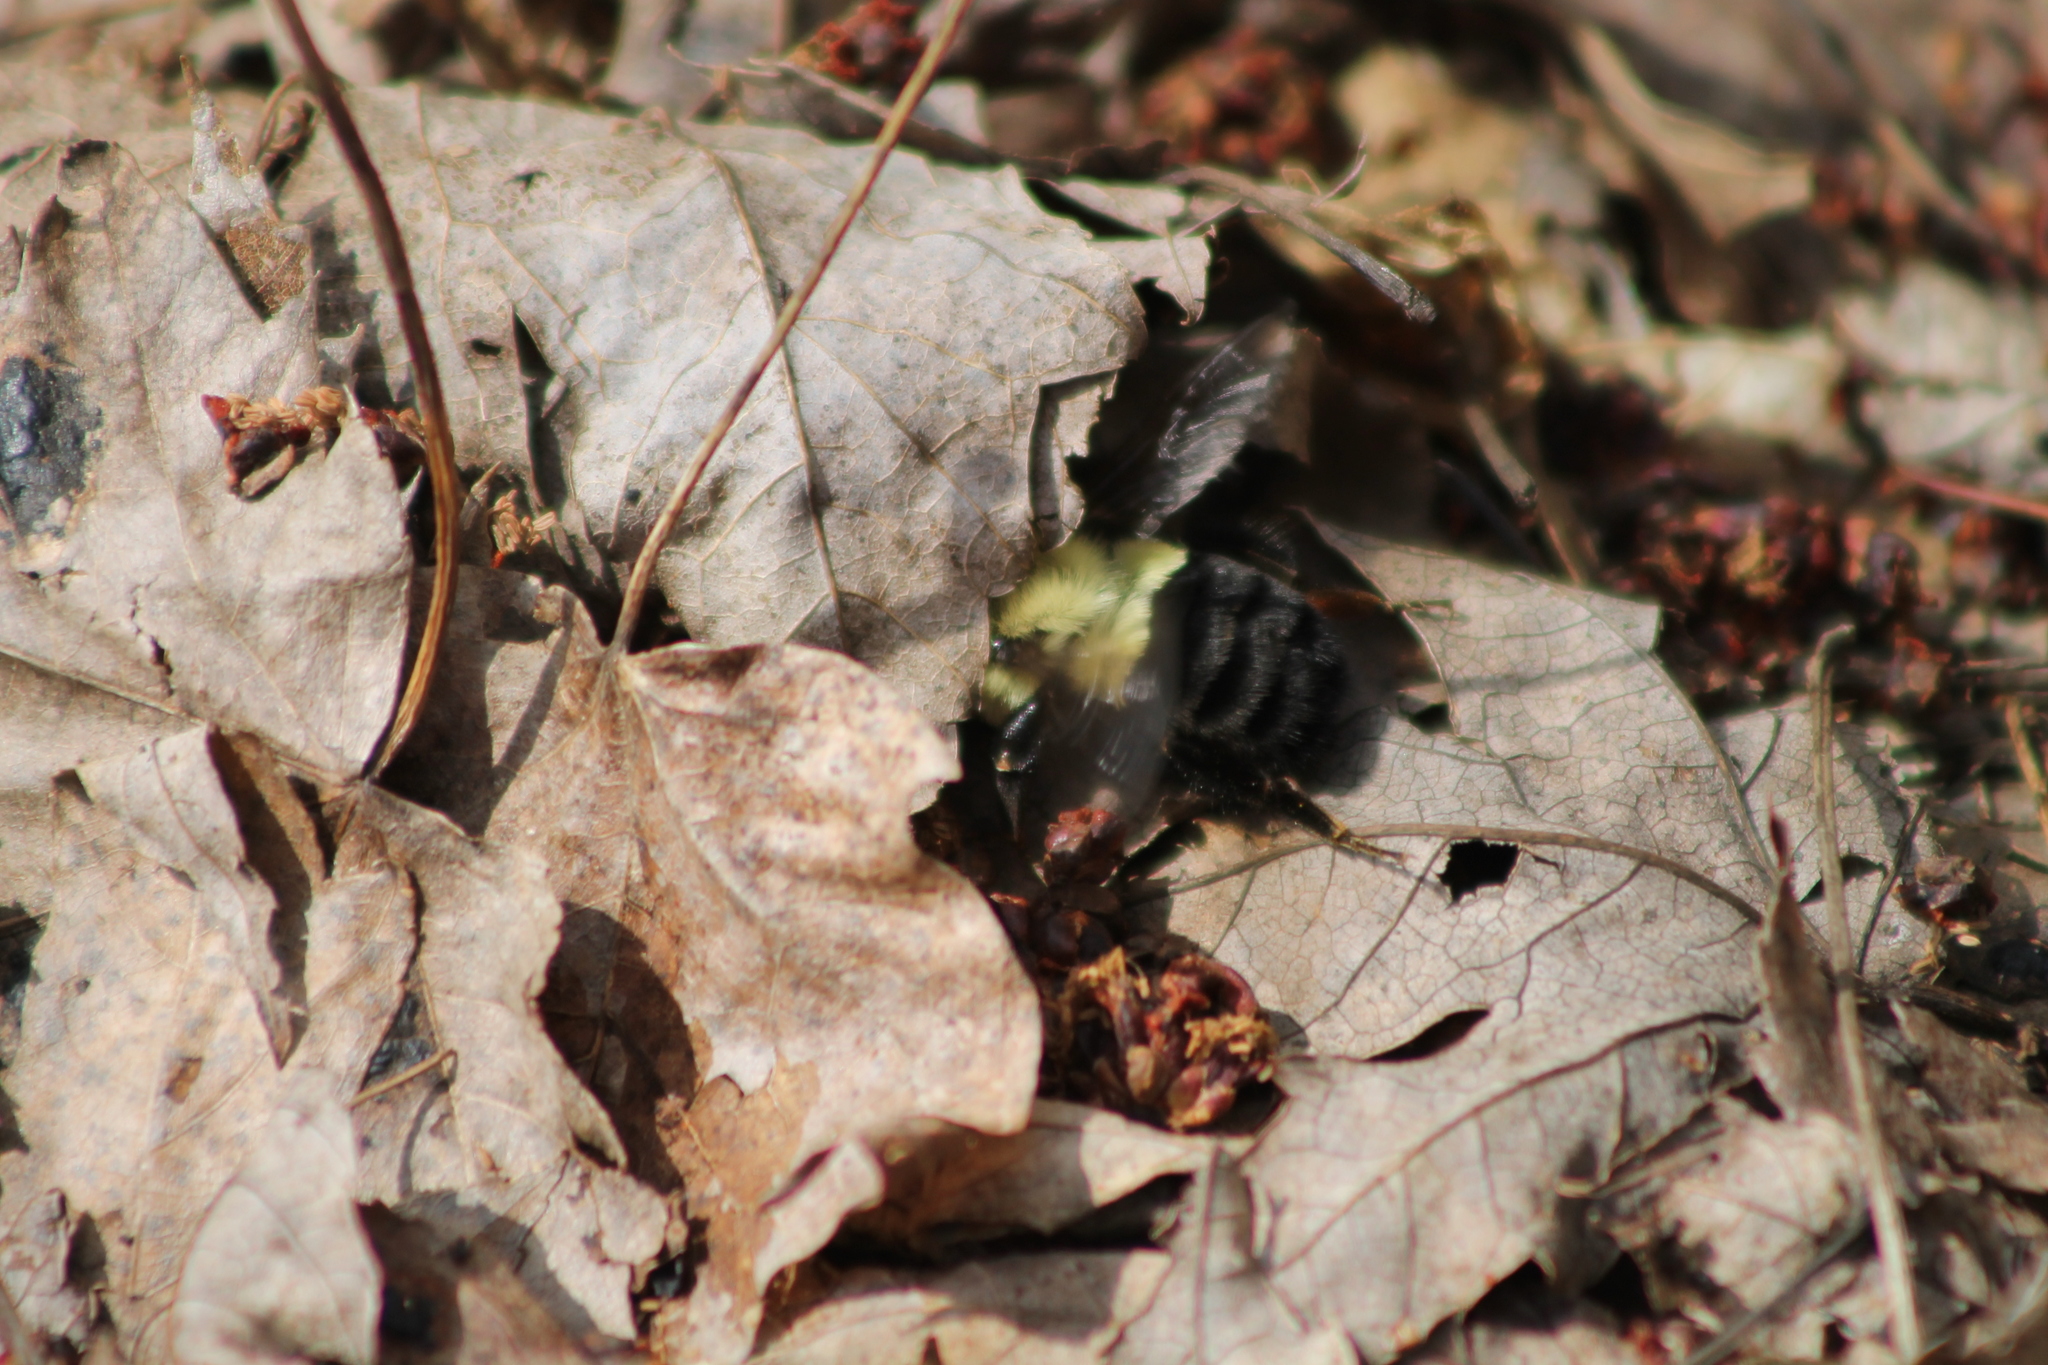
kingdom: Animalia
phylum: Arthropoda
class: Insecta
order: Hymenoptera
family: Apidae
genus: Bombus
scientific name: Bombus impatiens
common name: Common eastern bumble bee
